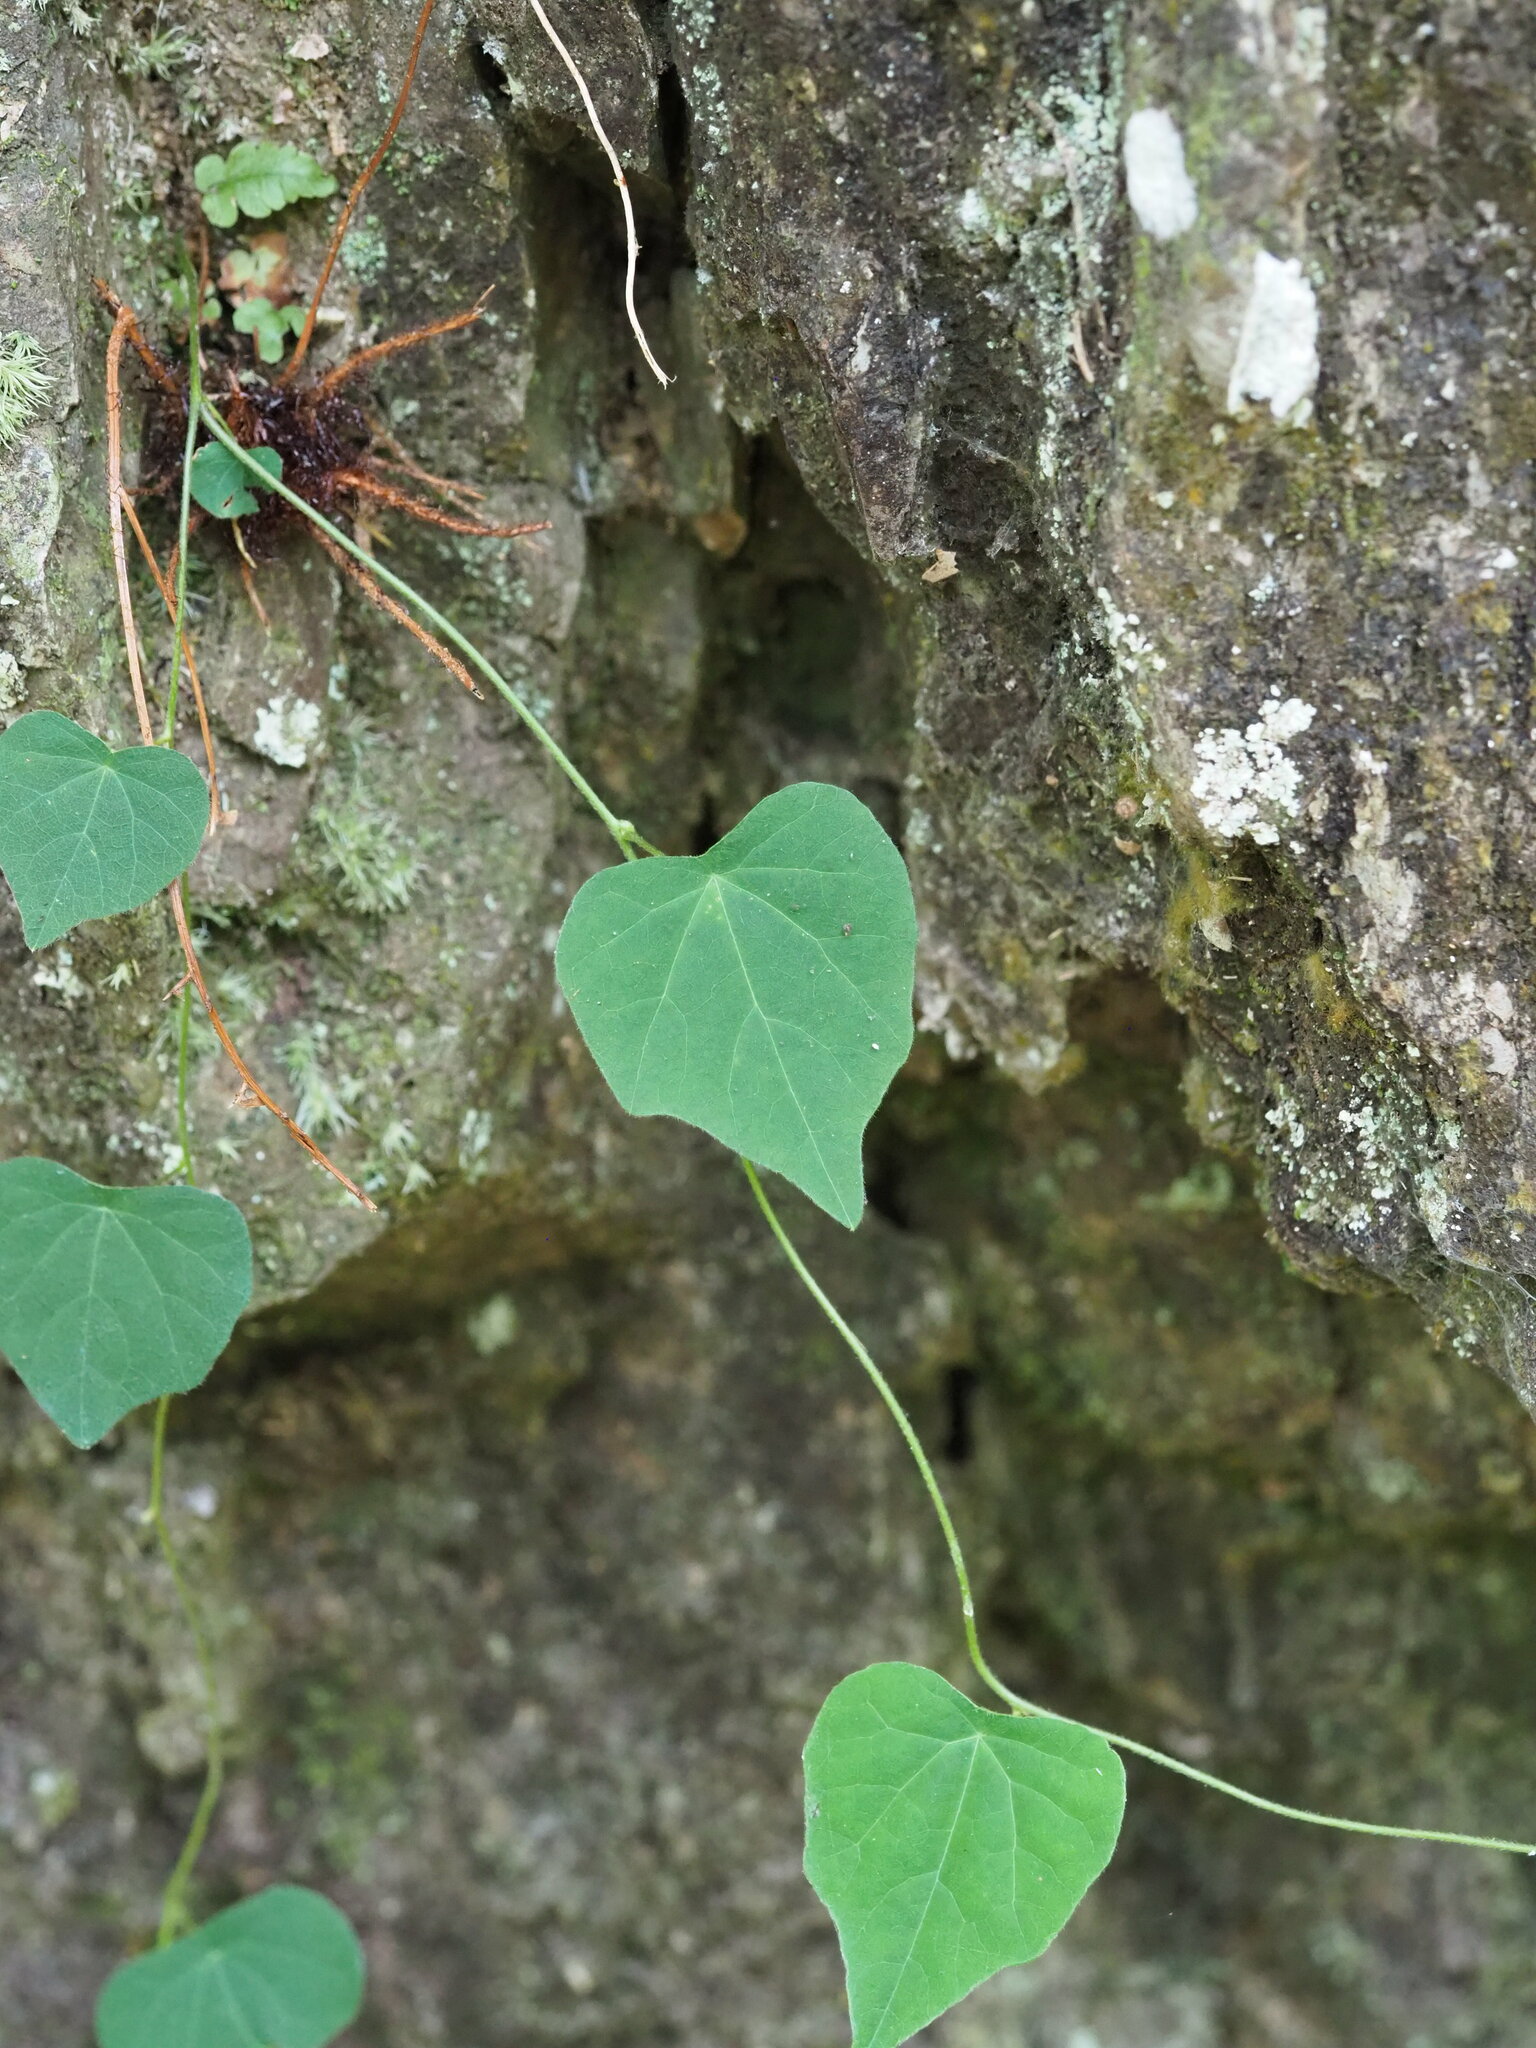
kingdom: Plantae
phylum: Tracheophyta
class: Magnoliopsida
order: Ranunculales
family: Menispermaceae
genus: Stephania
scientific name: Stephania tetrandra
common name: Stephania-root
